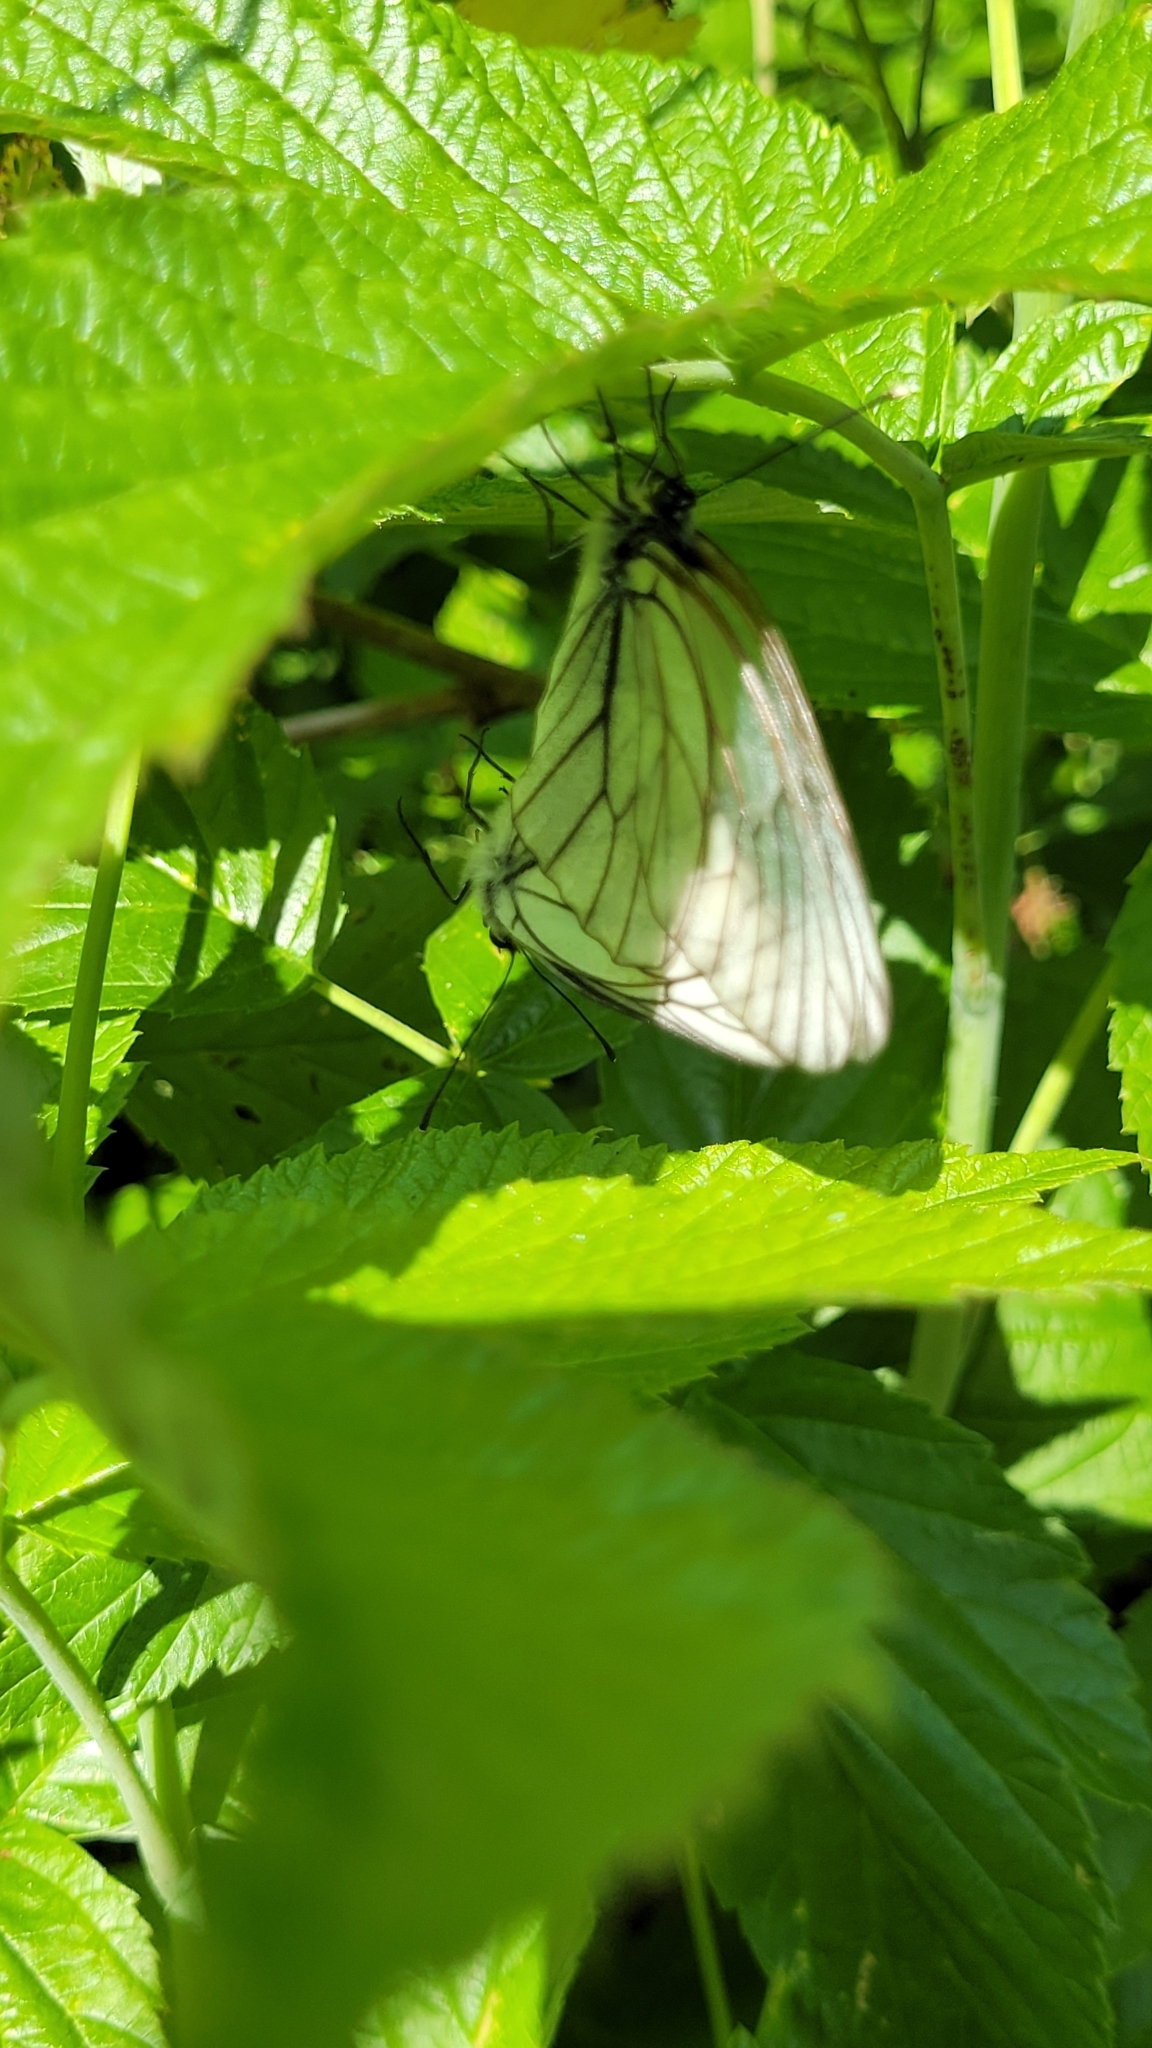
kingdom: Animalia
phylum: Arthropoda
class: Insecta
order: Lepidoptera
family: Pieridae
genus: Aporia
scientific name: Aporia crataegi
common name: Black-veined white
